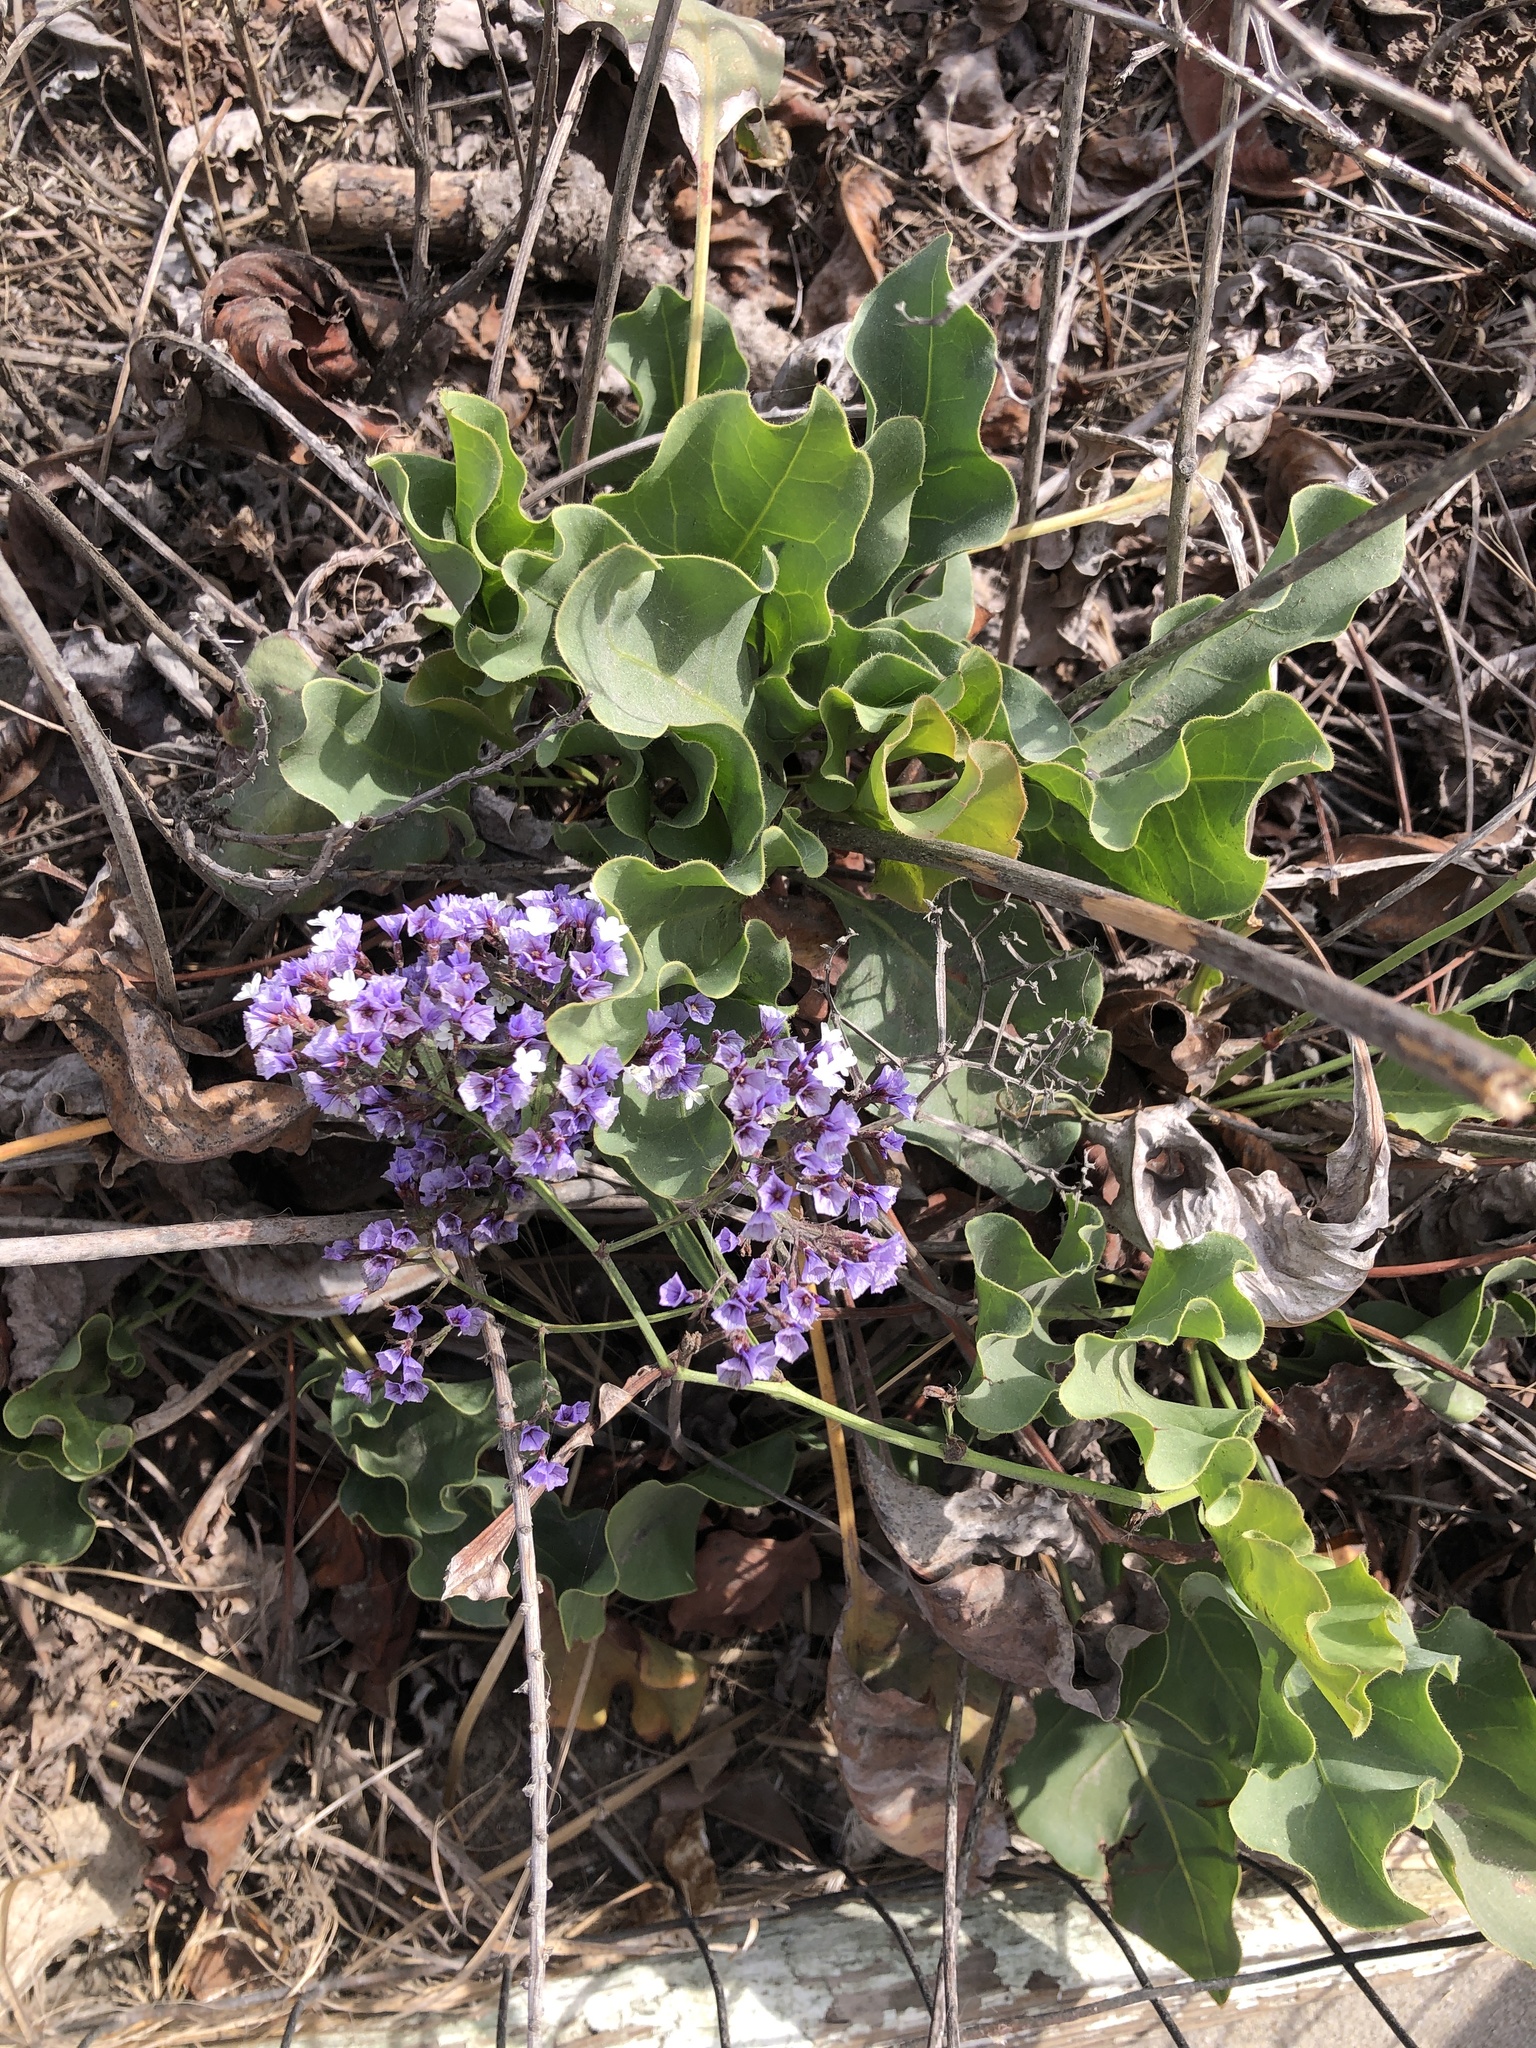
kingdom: Plantae
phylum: Tracheophyta
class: Magnoliopsida
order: Caryophyllales
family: Plumbaginaceae
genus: Limonium
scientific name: Limonium perezii
